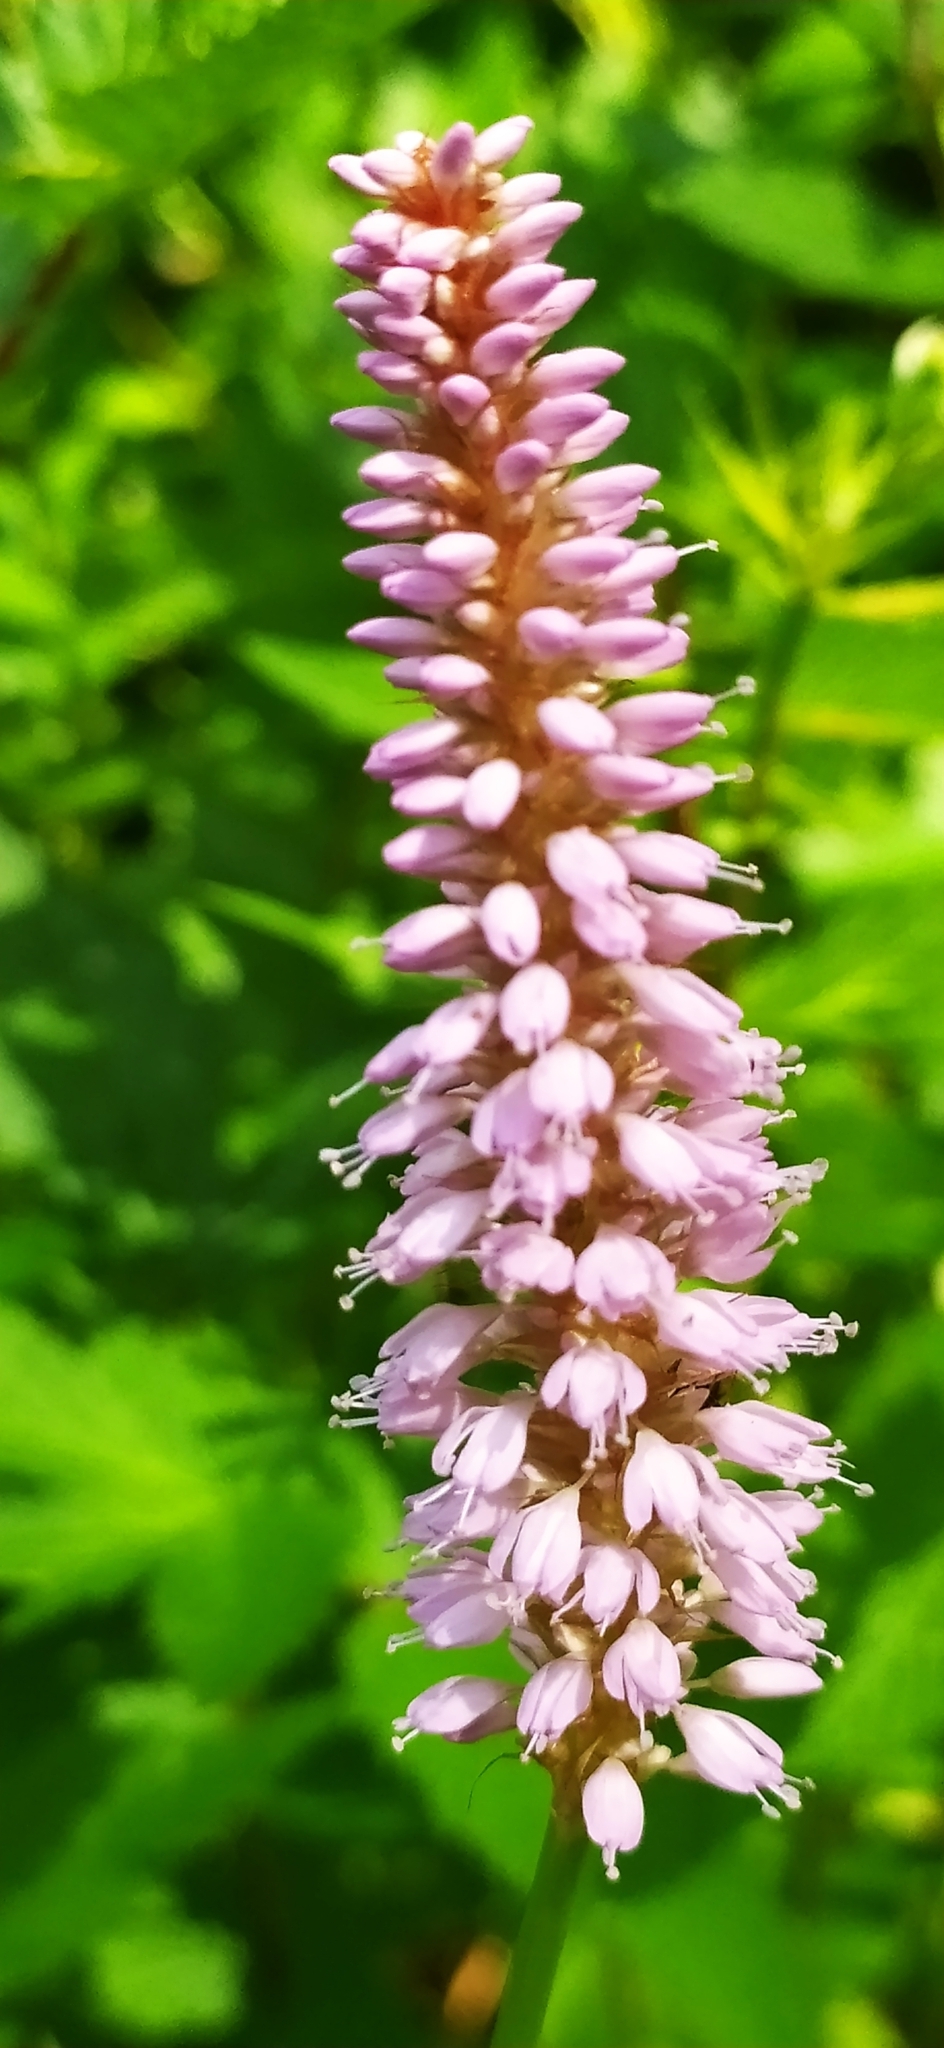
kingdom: Plantae
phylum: Tracheophyta
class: Magnoliopsida
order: Caryophyllales
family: Polygonaceae
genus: Bistorta
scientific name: Bistorta officinalis
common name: Common bistort
